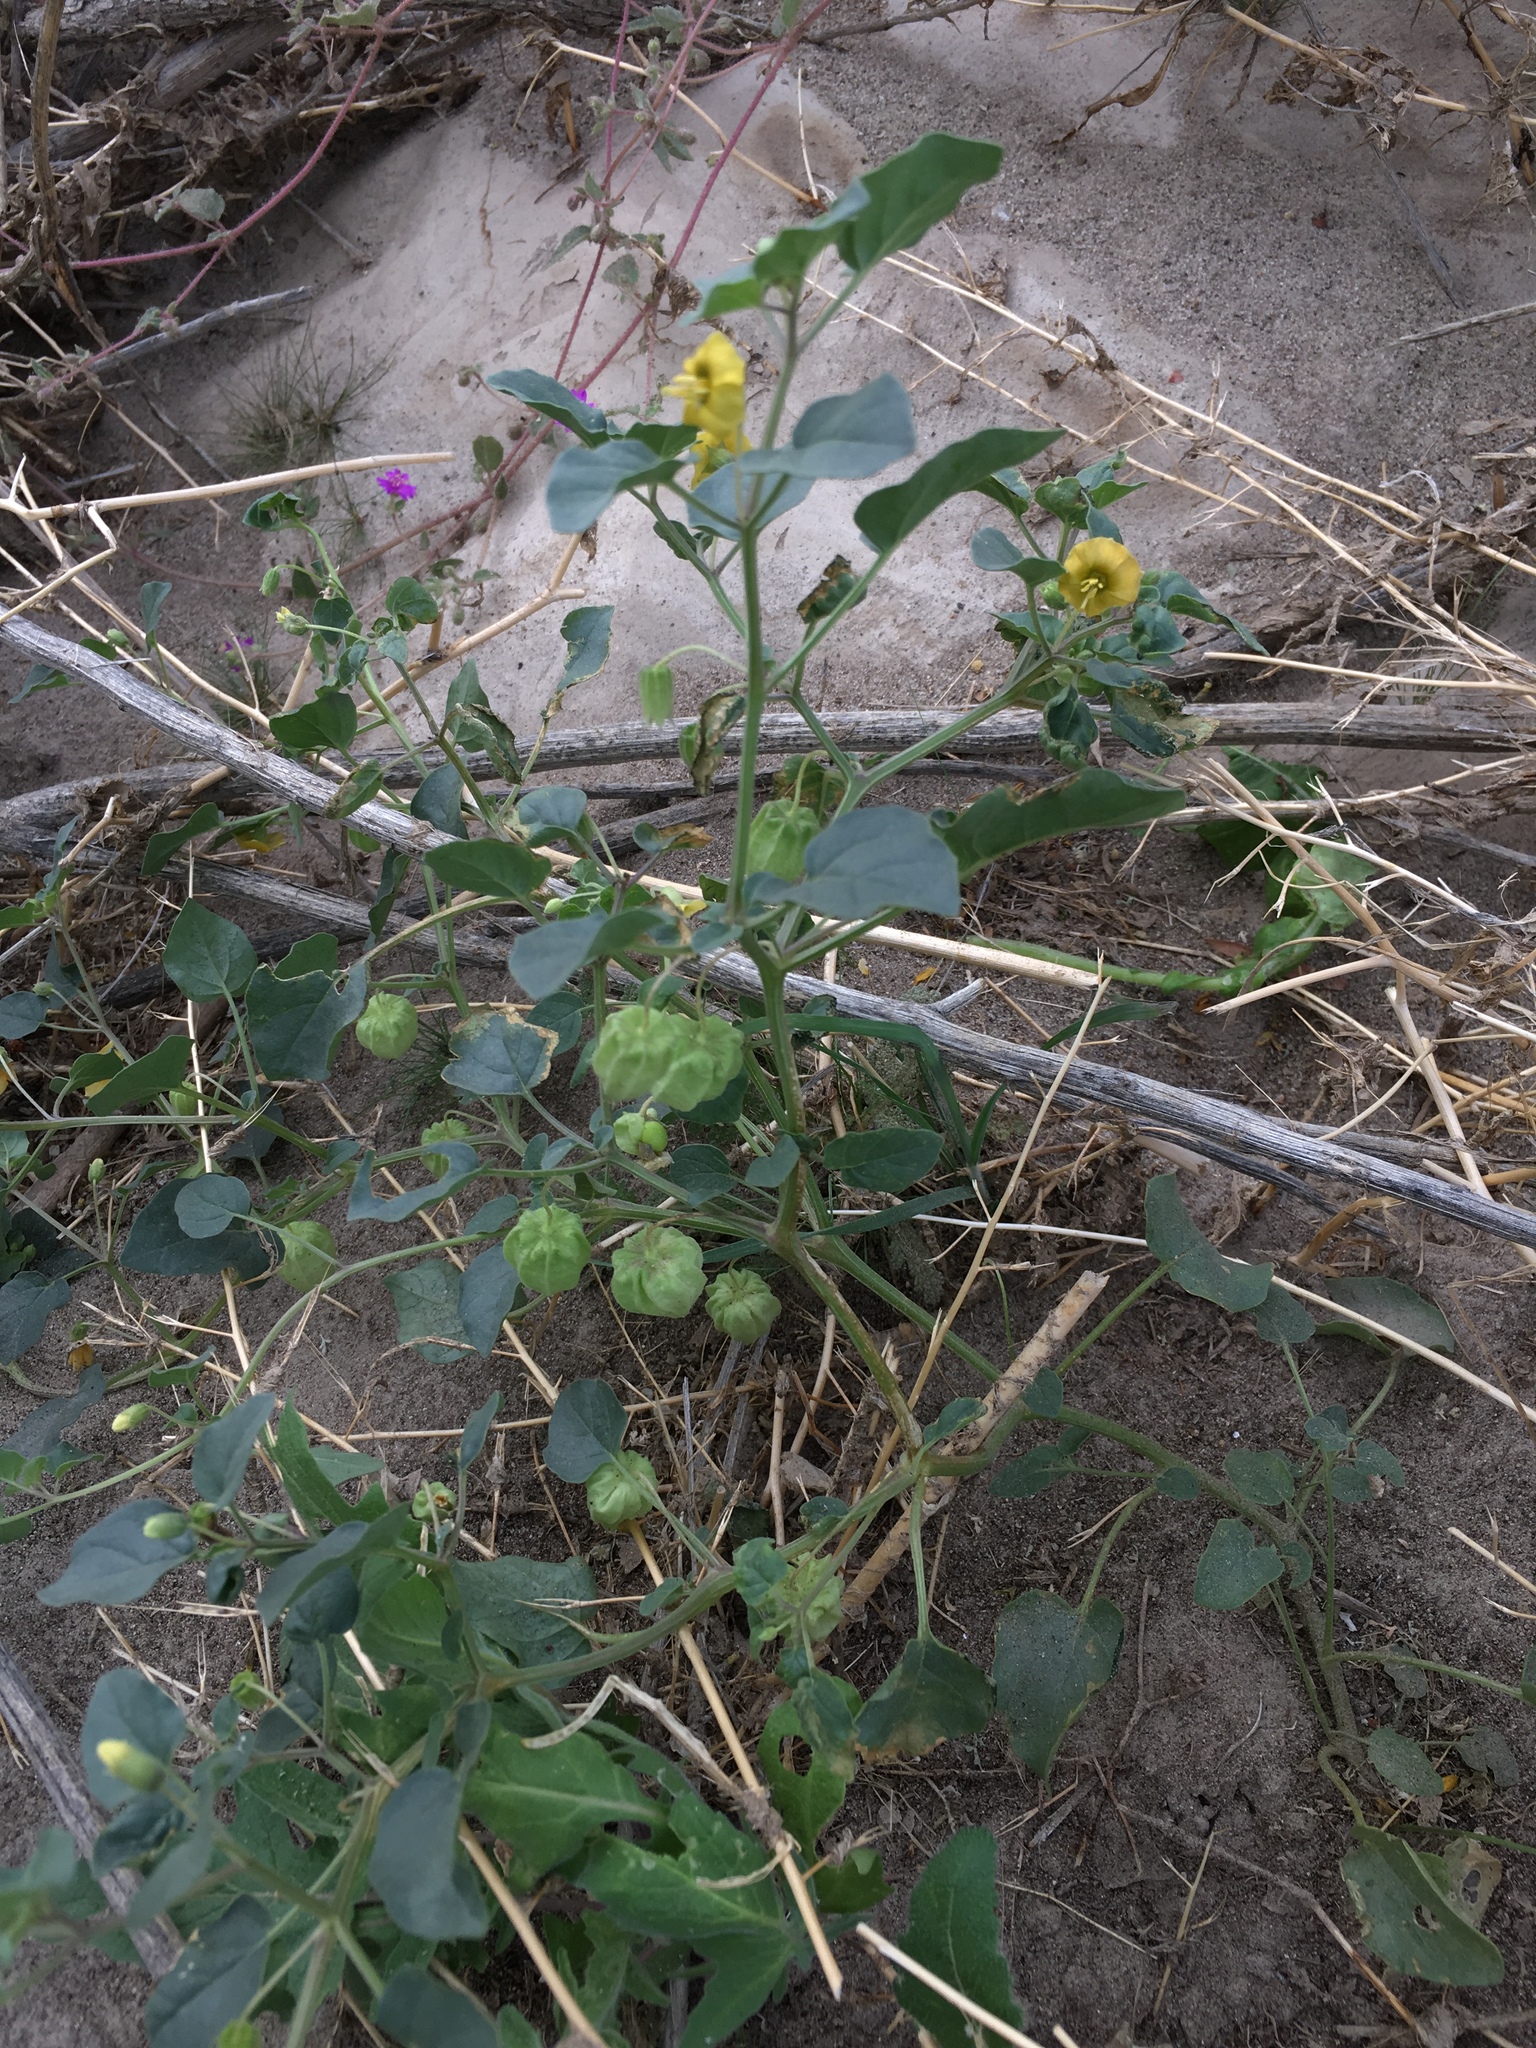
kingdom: Plantae
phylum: Tracheophyta
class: Magnoliopsida
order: Solanales
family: Solanaceae
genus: Physalis
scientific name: Physalis crassifolia
